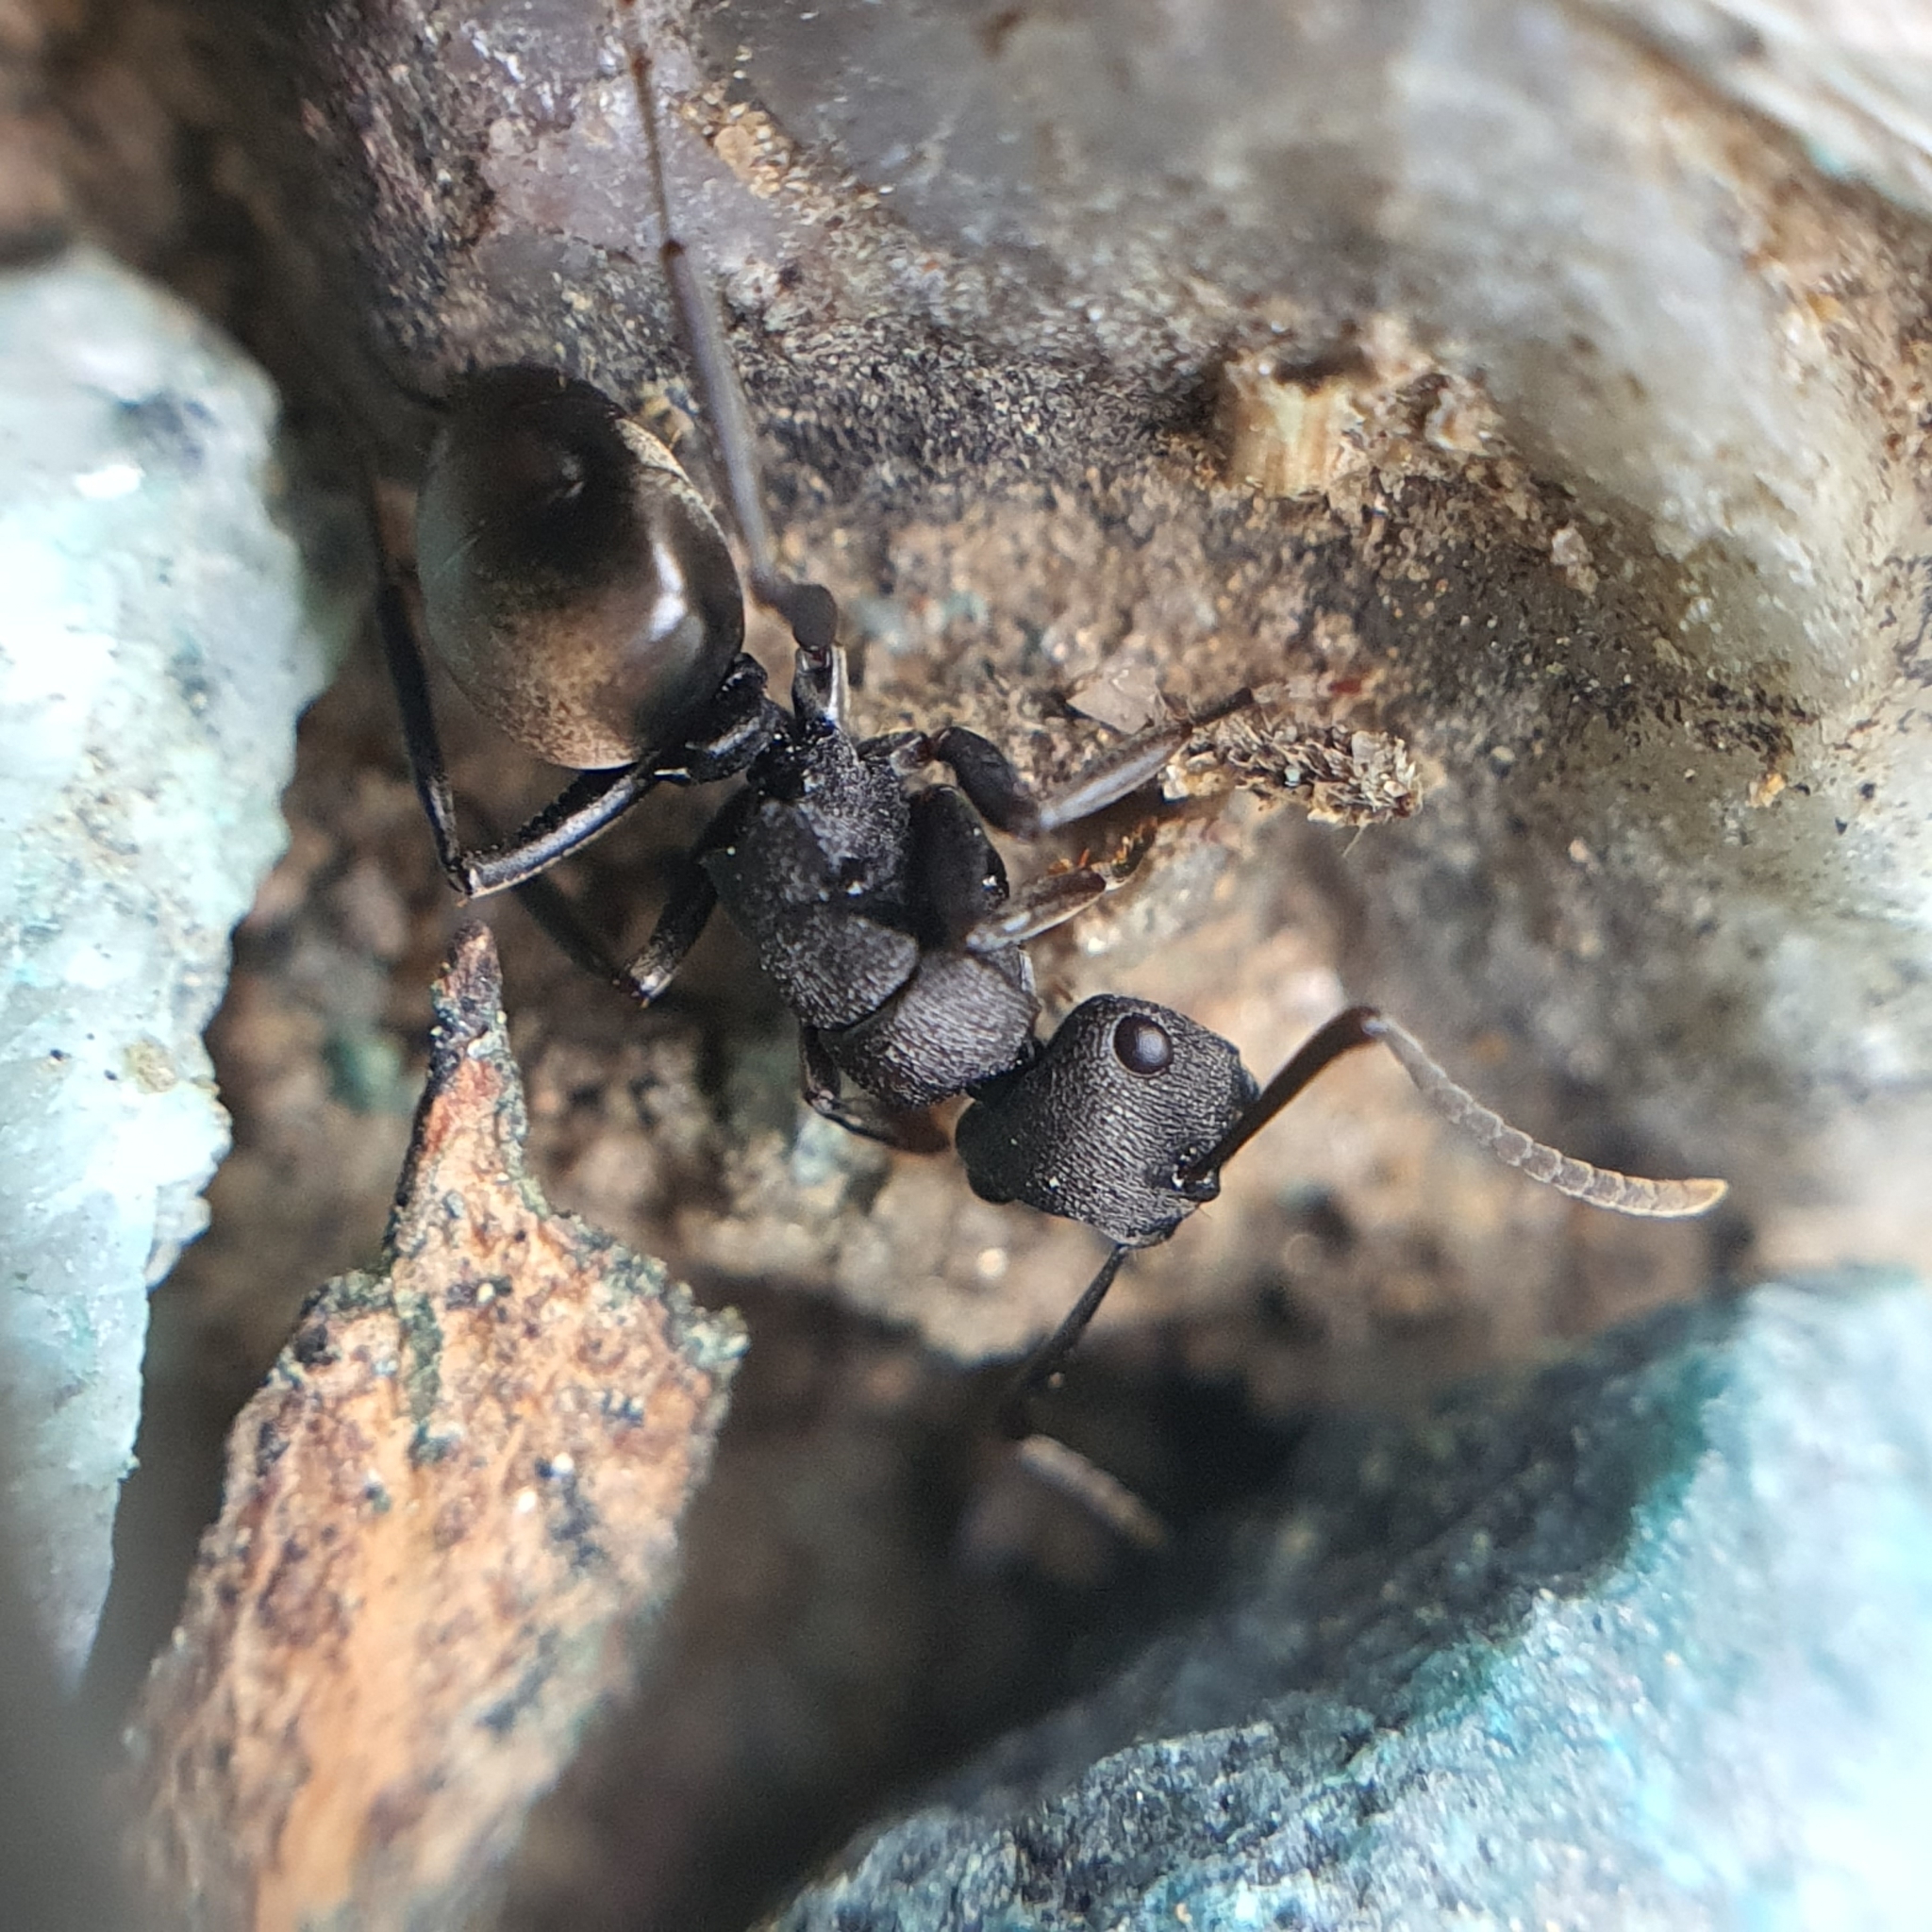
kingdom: Animalia
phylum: Arthropoda
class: Insecta
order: Hymenoptera
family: Formicidae
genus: Polyrhachis
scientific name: Polyrhachis phryne
